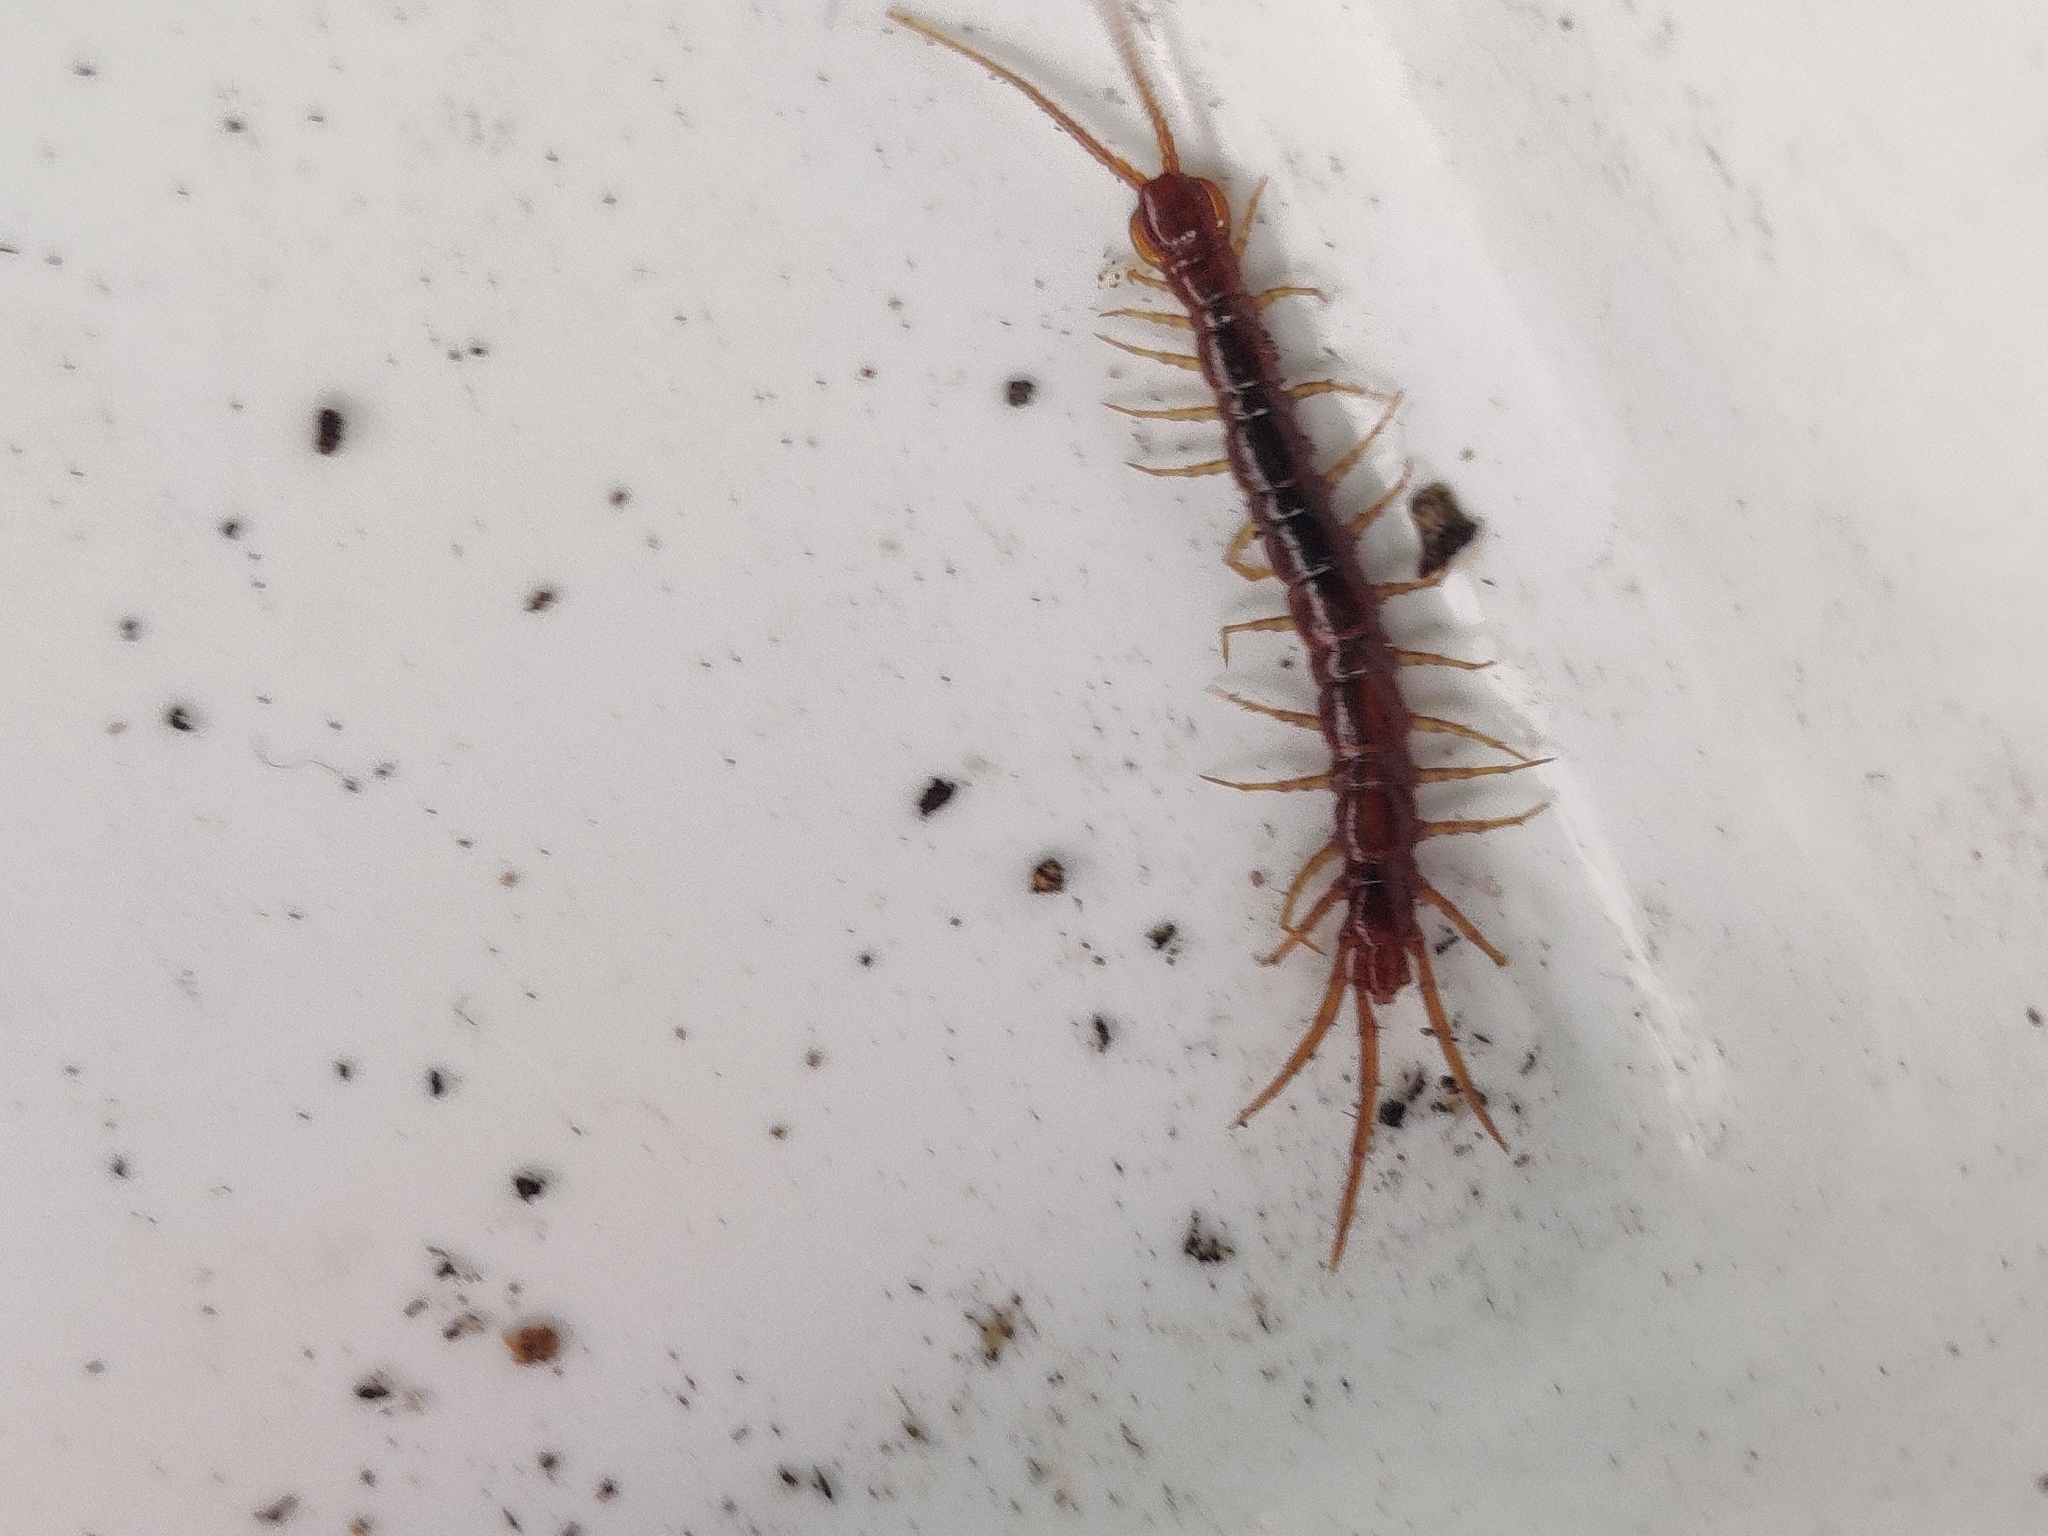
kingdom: Animalia
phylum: Arthropoda
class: Chilopoda
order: Lithobiomorpha
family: Lithobiidae
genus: Lithobius
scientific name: Lithobius forficatus
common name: Centipede
